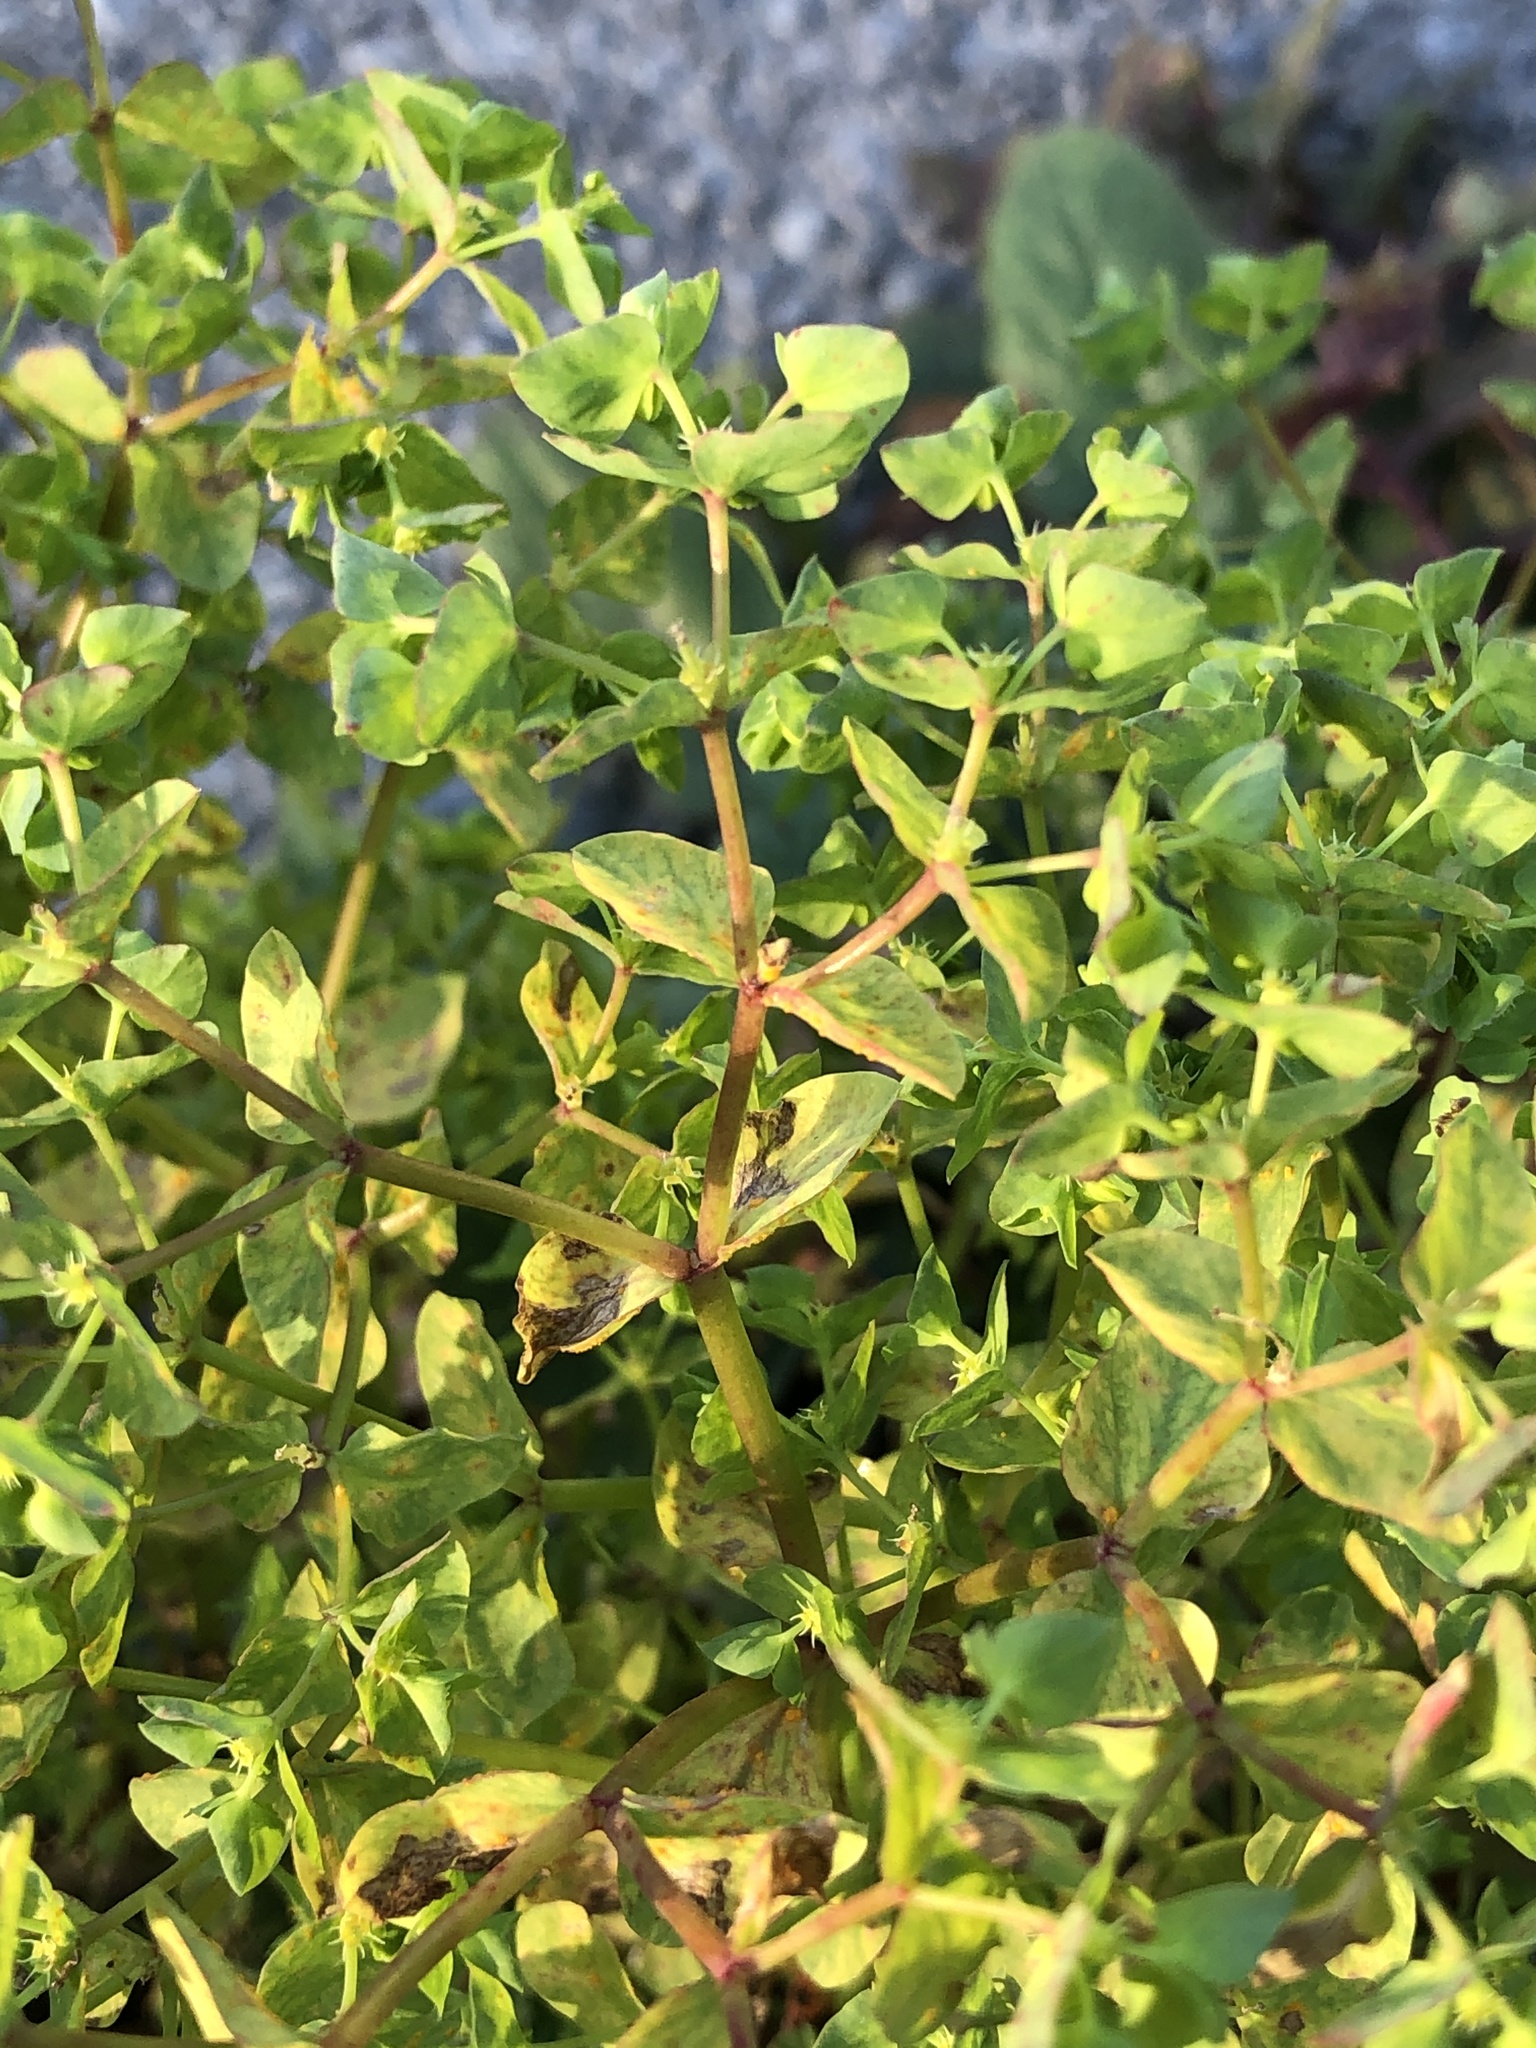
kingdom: Plantae
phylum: Tracheophyta
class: Magnoliopsida
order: Malpighiales
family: Euphorbiaceae
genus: Euphorbia
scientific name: Euphorbia peplus
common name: Petty spurge
